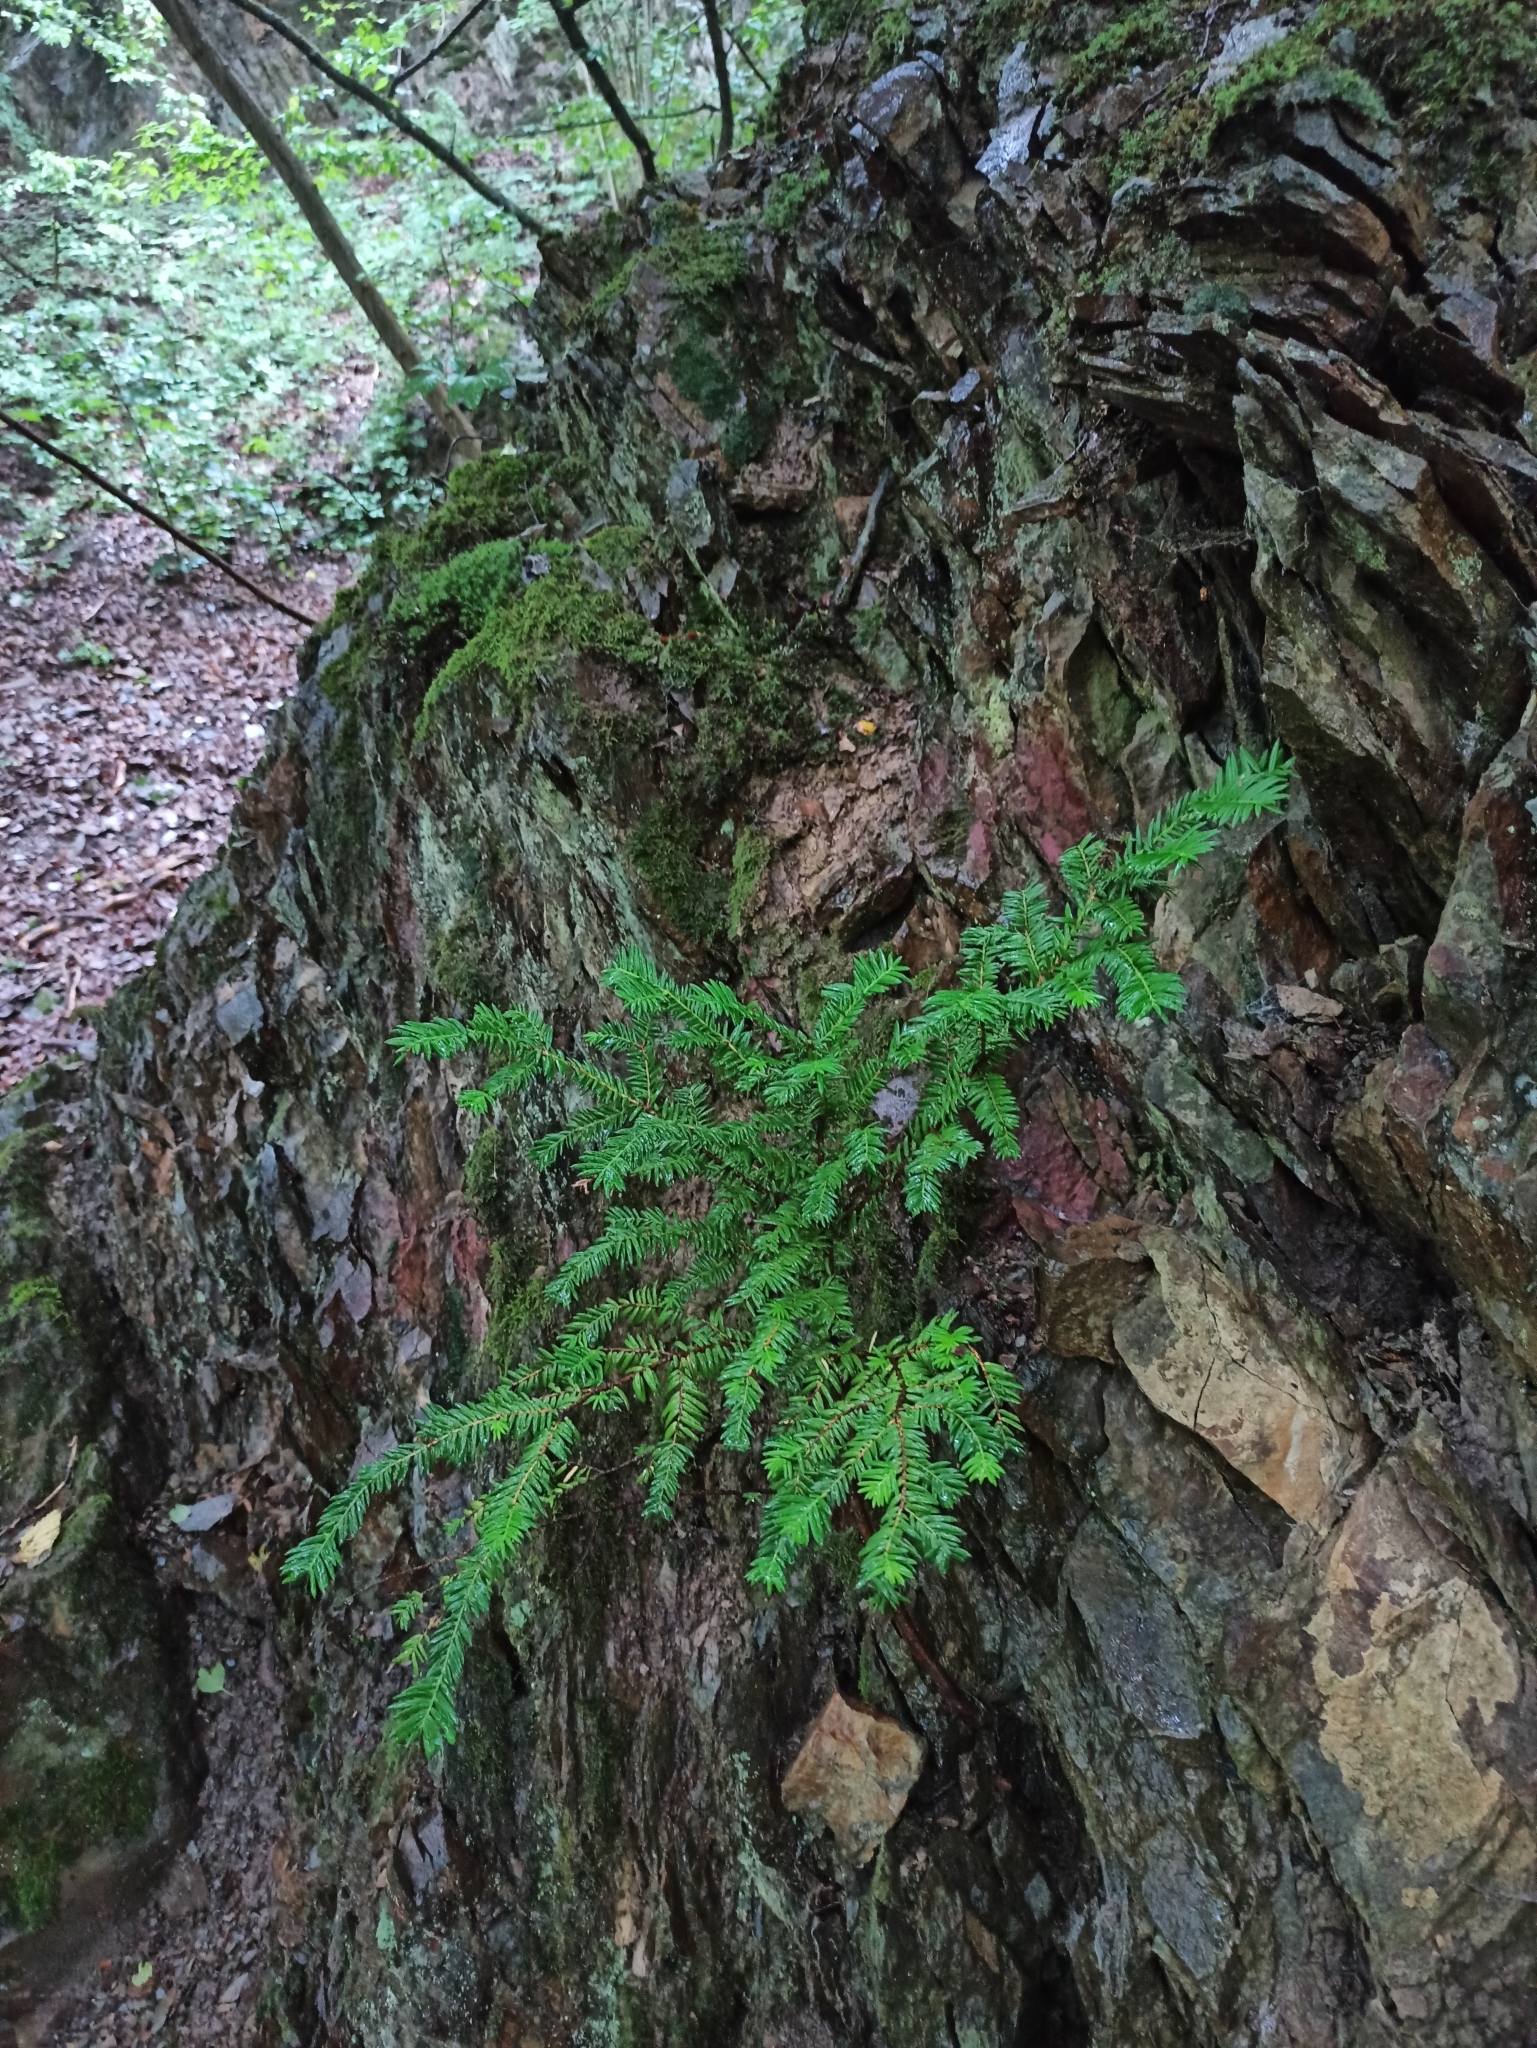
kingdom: Plantae
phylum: Tracheophyta
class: Pinopsida
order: Pinales
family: Taxaceae
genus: Taxus
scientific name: Taxus baccata
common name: Yew
